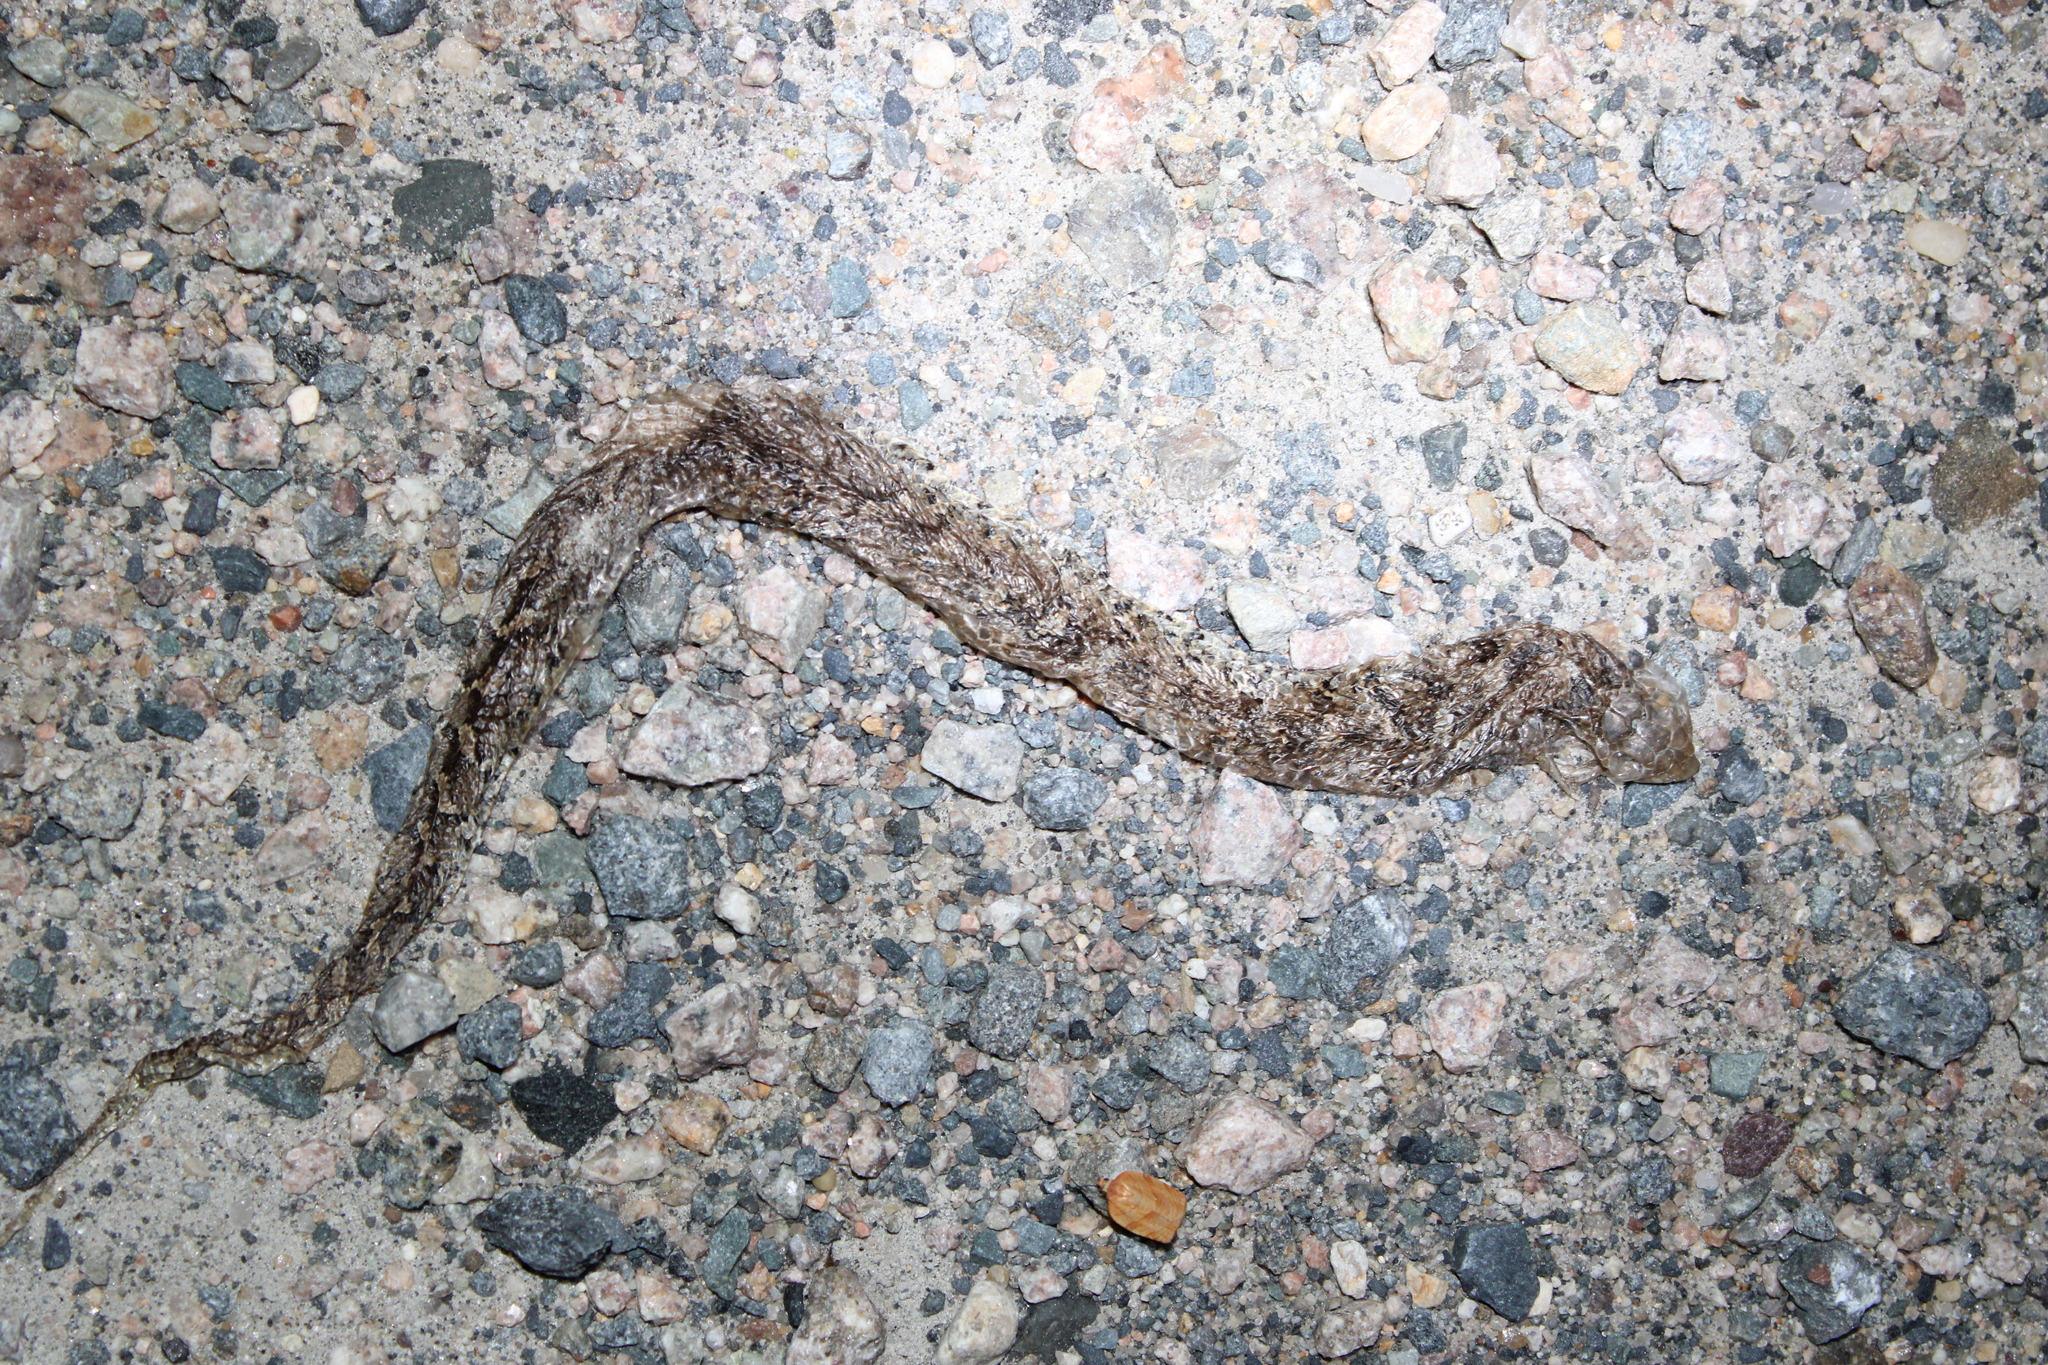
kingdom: Animalia
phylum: Chordata
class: Squamata
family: Colubridae
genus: Heterodon
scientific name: Heterodon platirhinos
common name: Eastern hognose snake
